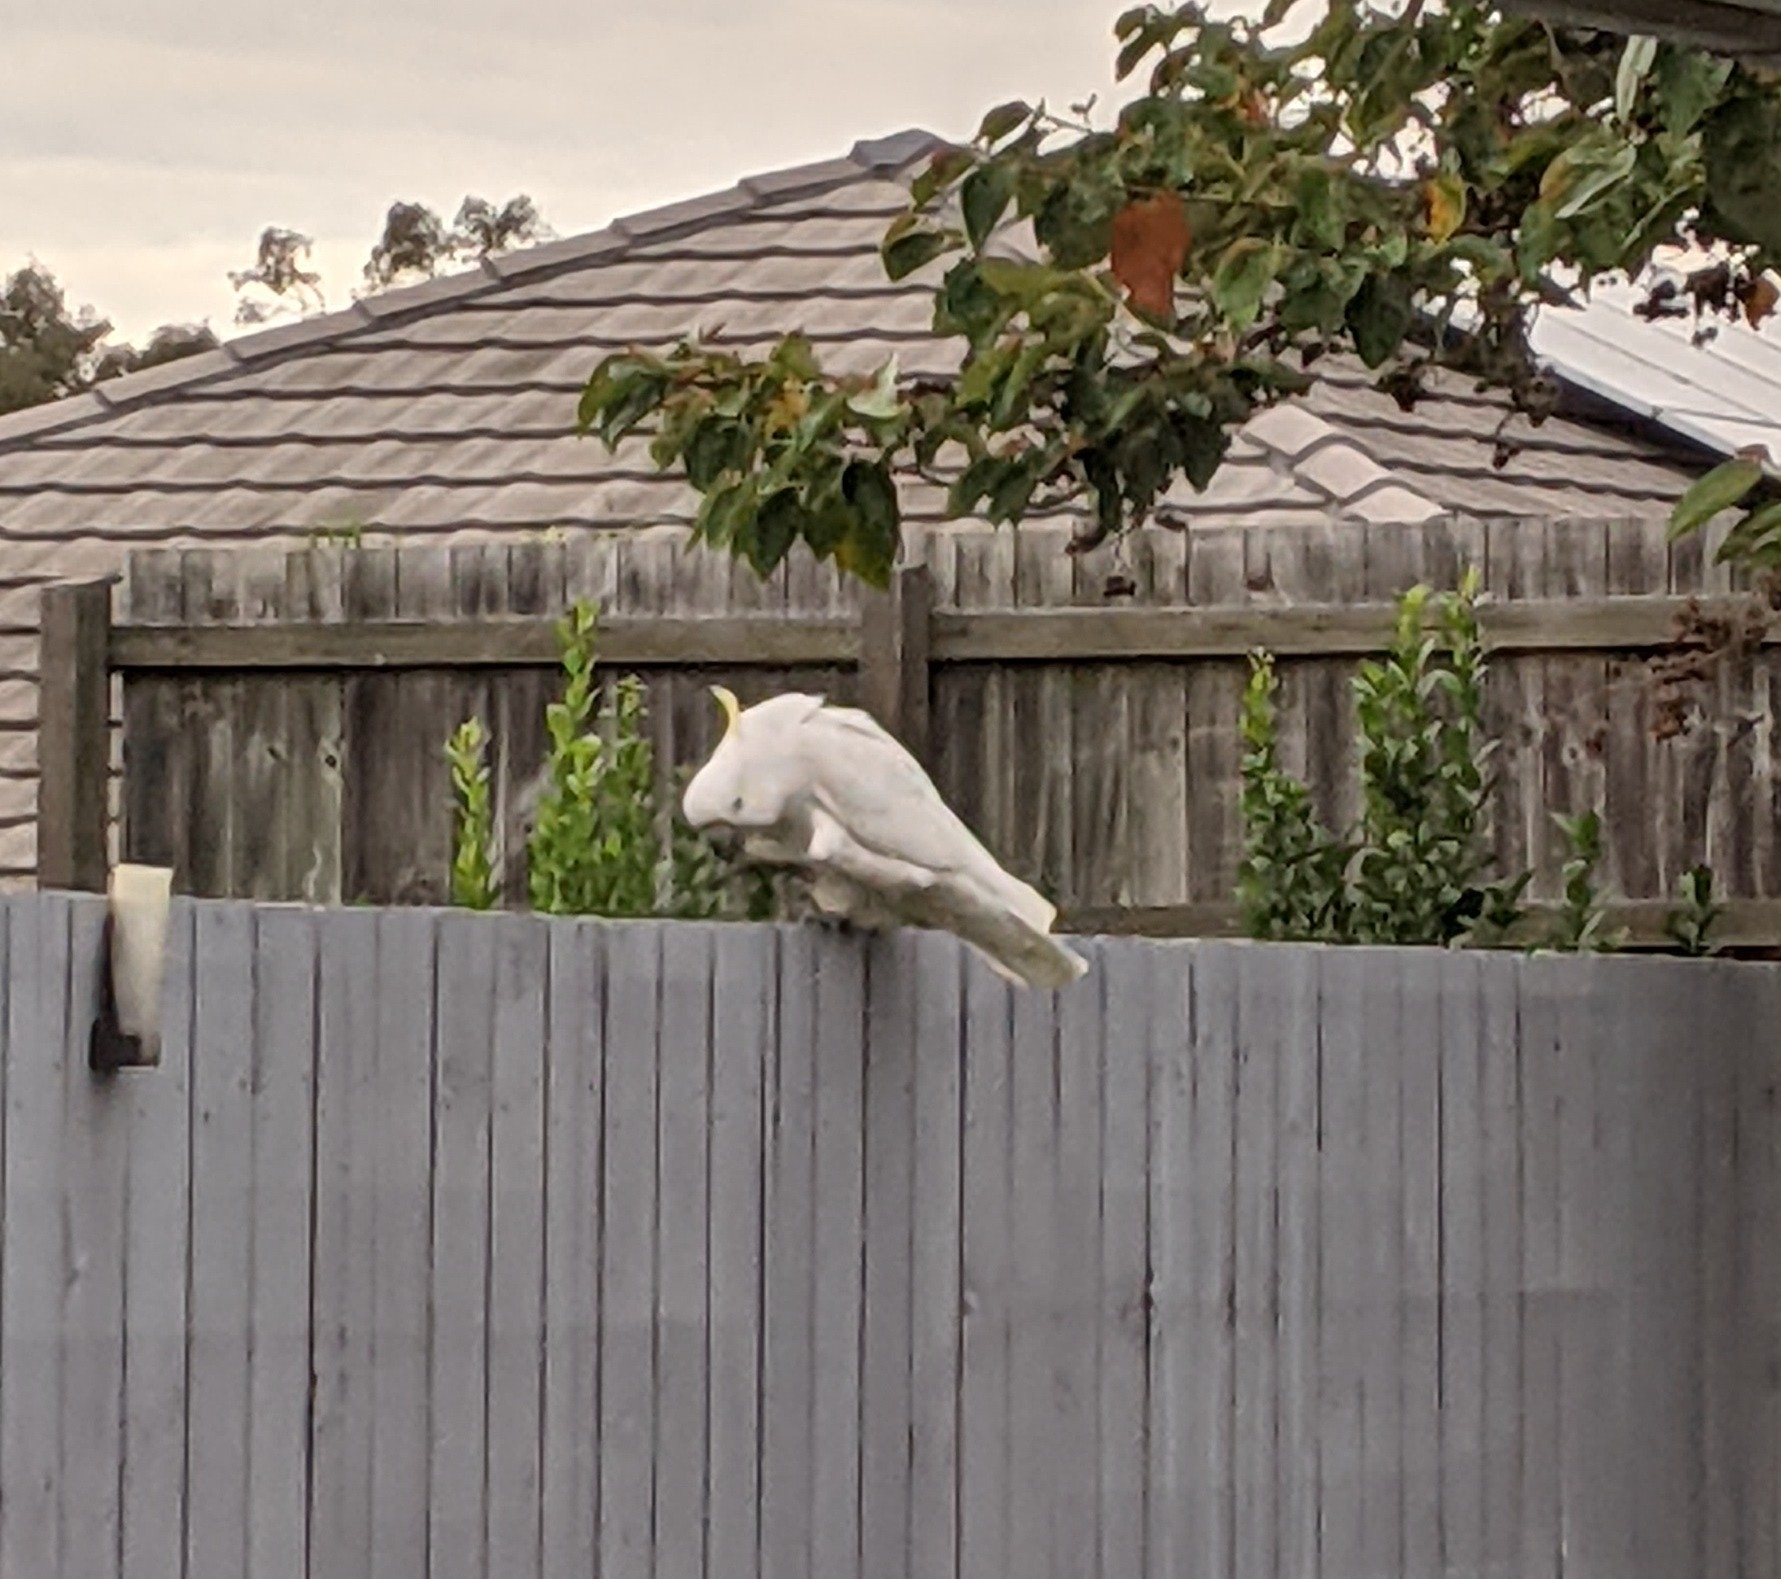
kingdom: Animalia
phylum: Chordata
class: Aves
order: Psittaciformes
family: Psittacidae
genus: Cacatua
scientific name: Cacatua galerita
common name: Sulphur-crested cockatoo
